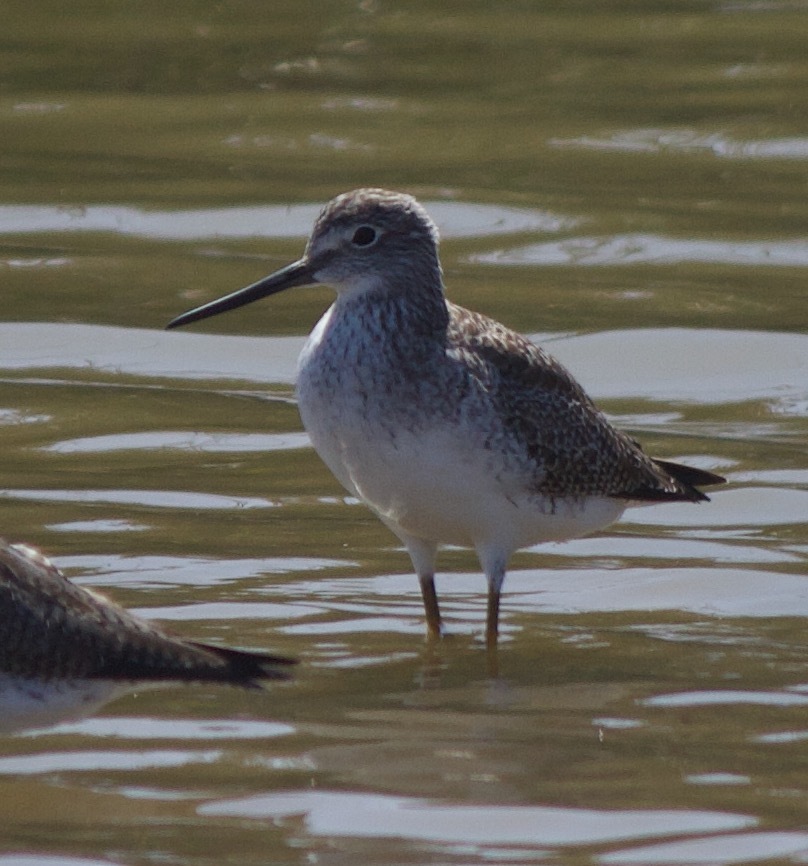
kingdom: Animalia
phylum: Chordata
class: Aves
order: Charadriiformes
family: Scolopacidae
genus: Tringa
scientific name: Tringa melanoleuca
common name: Greater yellowlegs
